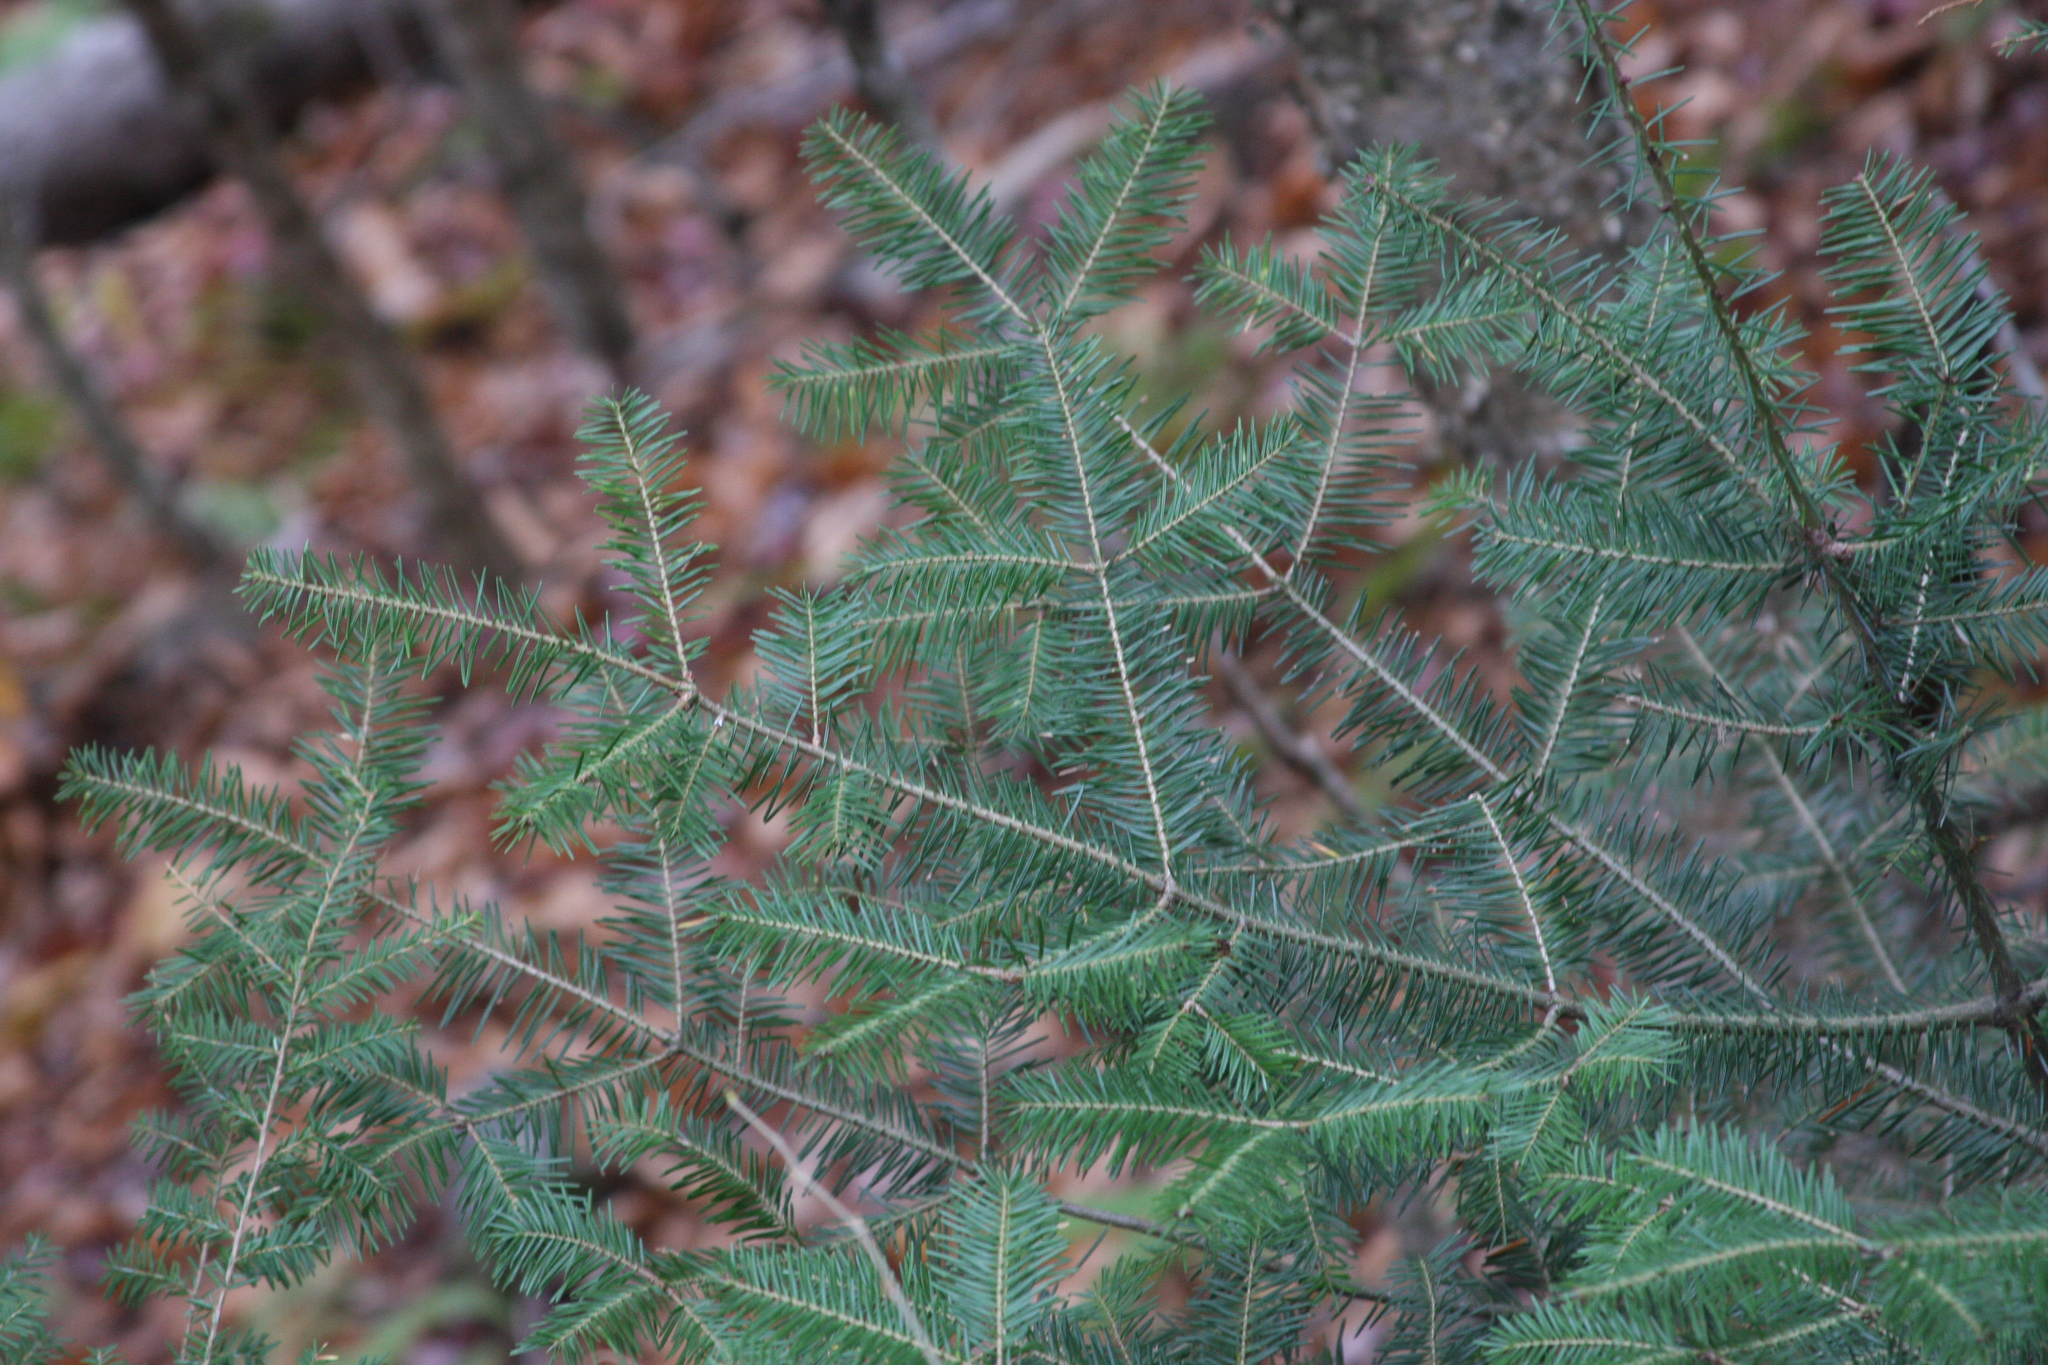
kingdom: Plantae
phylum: Tracheophyta
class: Pinopsida
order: Pinales
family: Pinaceae
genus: Abies
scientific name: Abies balsamea
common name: Balsam fir
